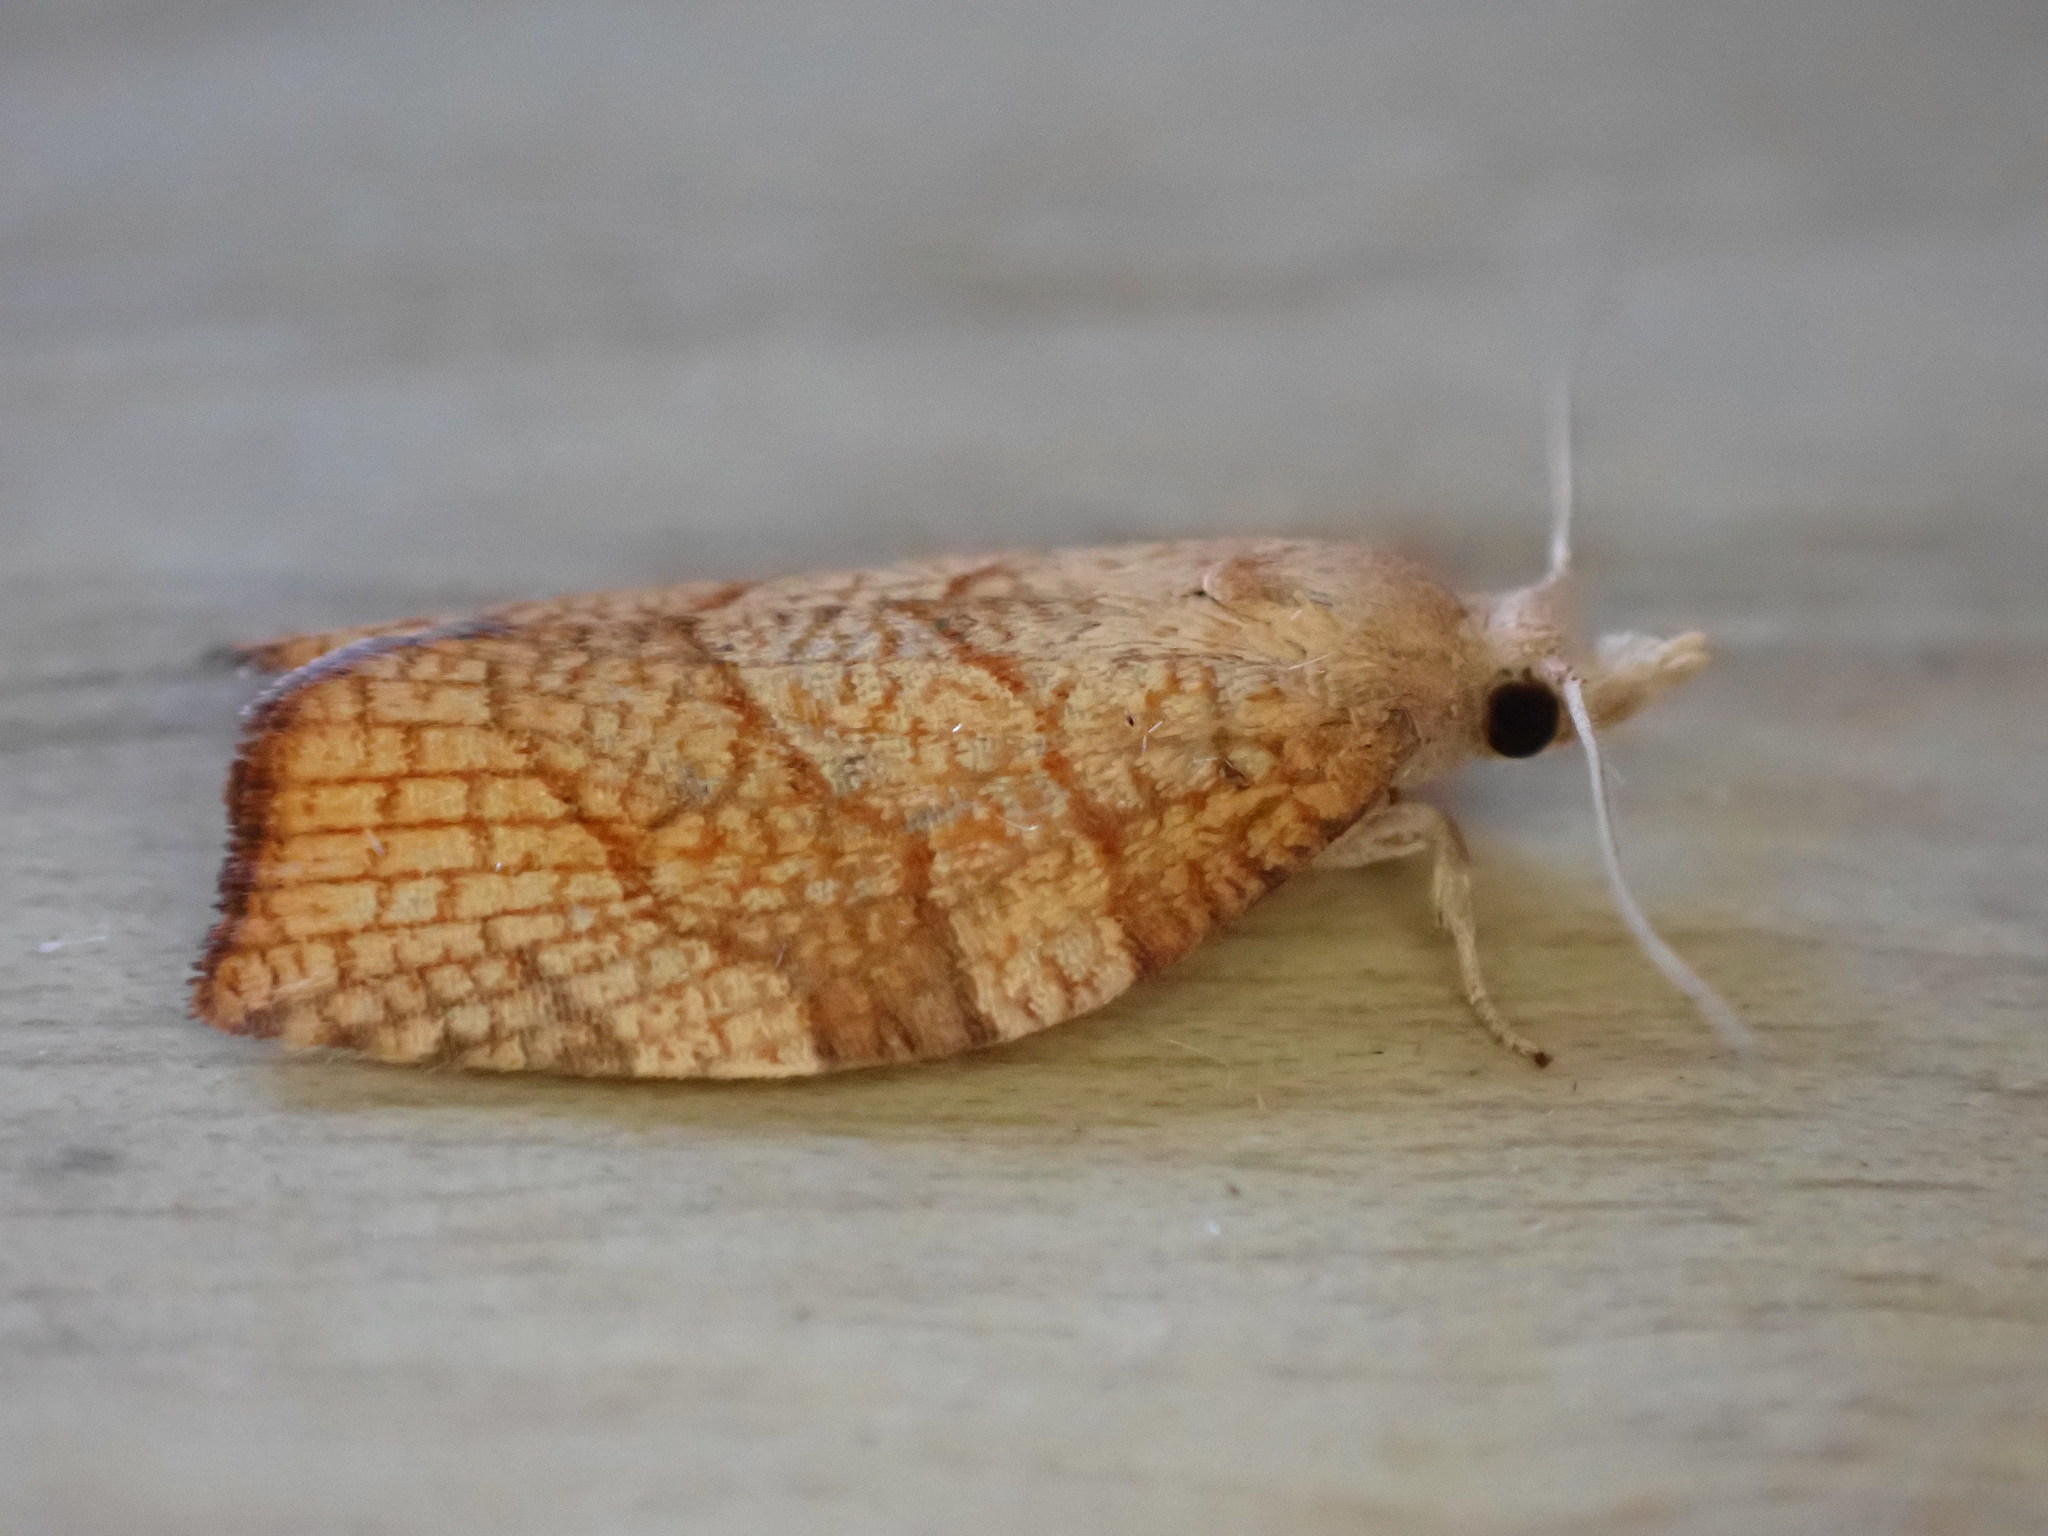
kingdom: Animalia
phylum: Arthropoda
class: Insecta
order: Lepidoptera
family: Tortricidae
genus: Pandemis
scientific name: Pandemis corylana
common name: Chequered fruit-tree tortrix
